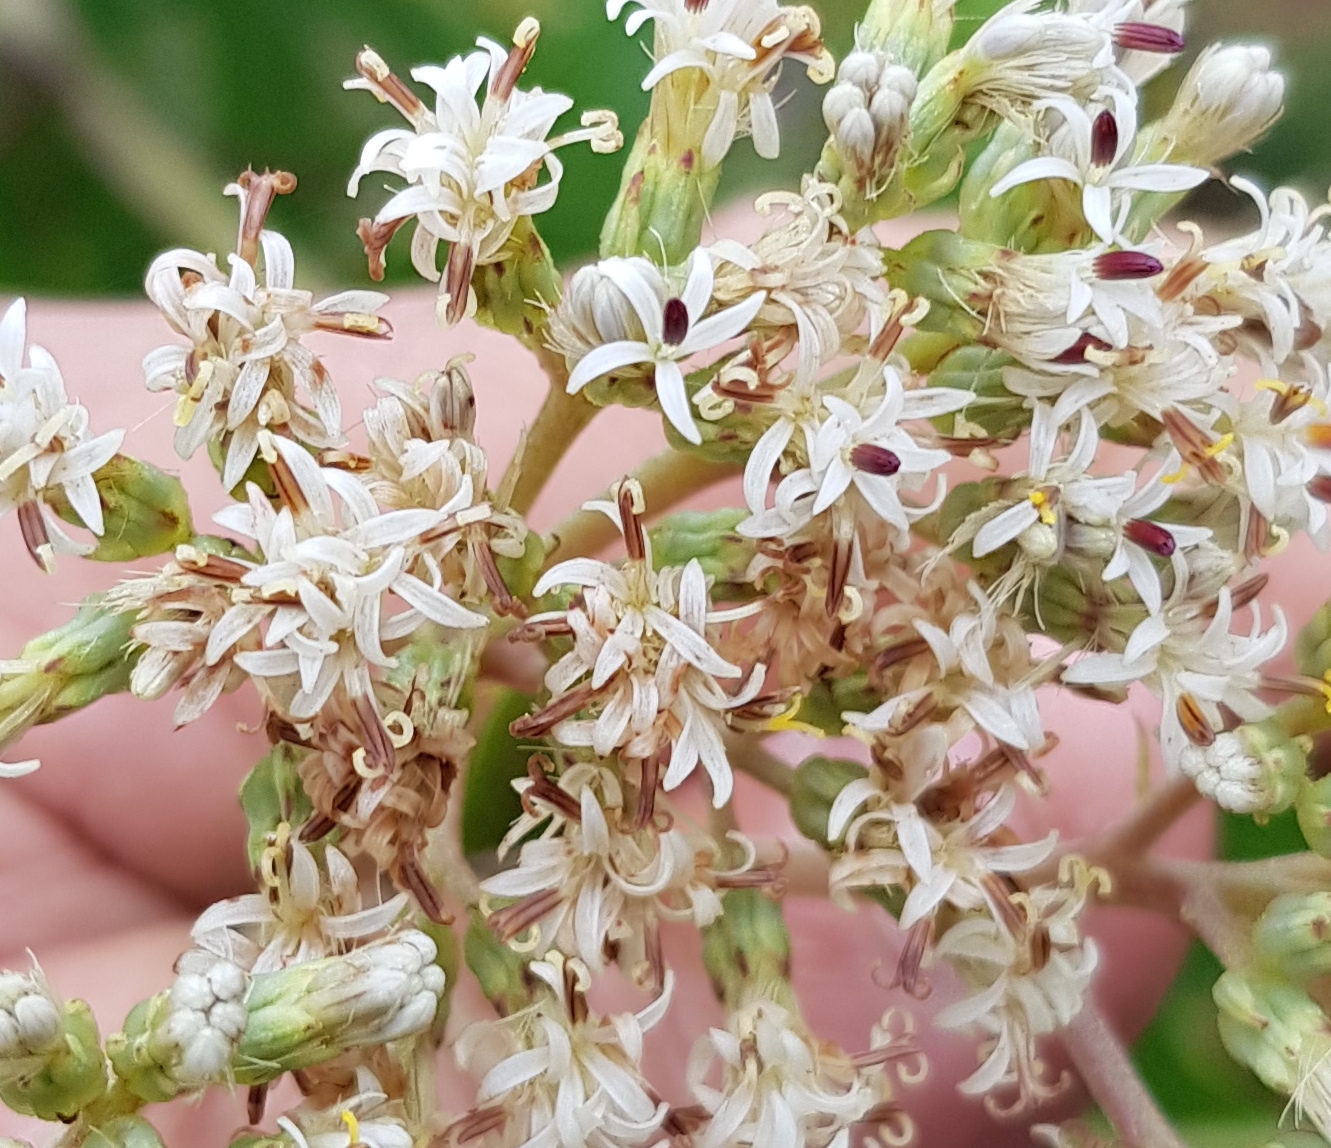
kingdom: Plantae
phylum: Tracheophyta
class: Magnoliopsida
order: Asterales
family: Asteraceae
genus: Digitacalia
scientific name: Digitacalia jatrophoides
